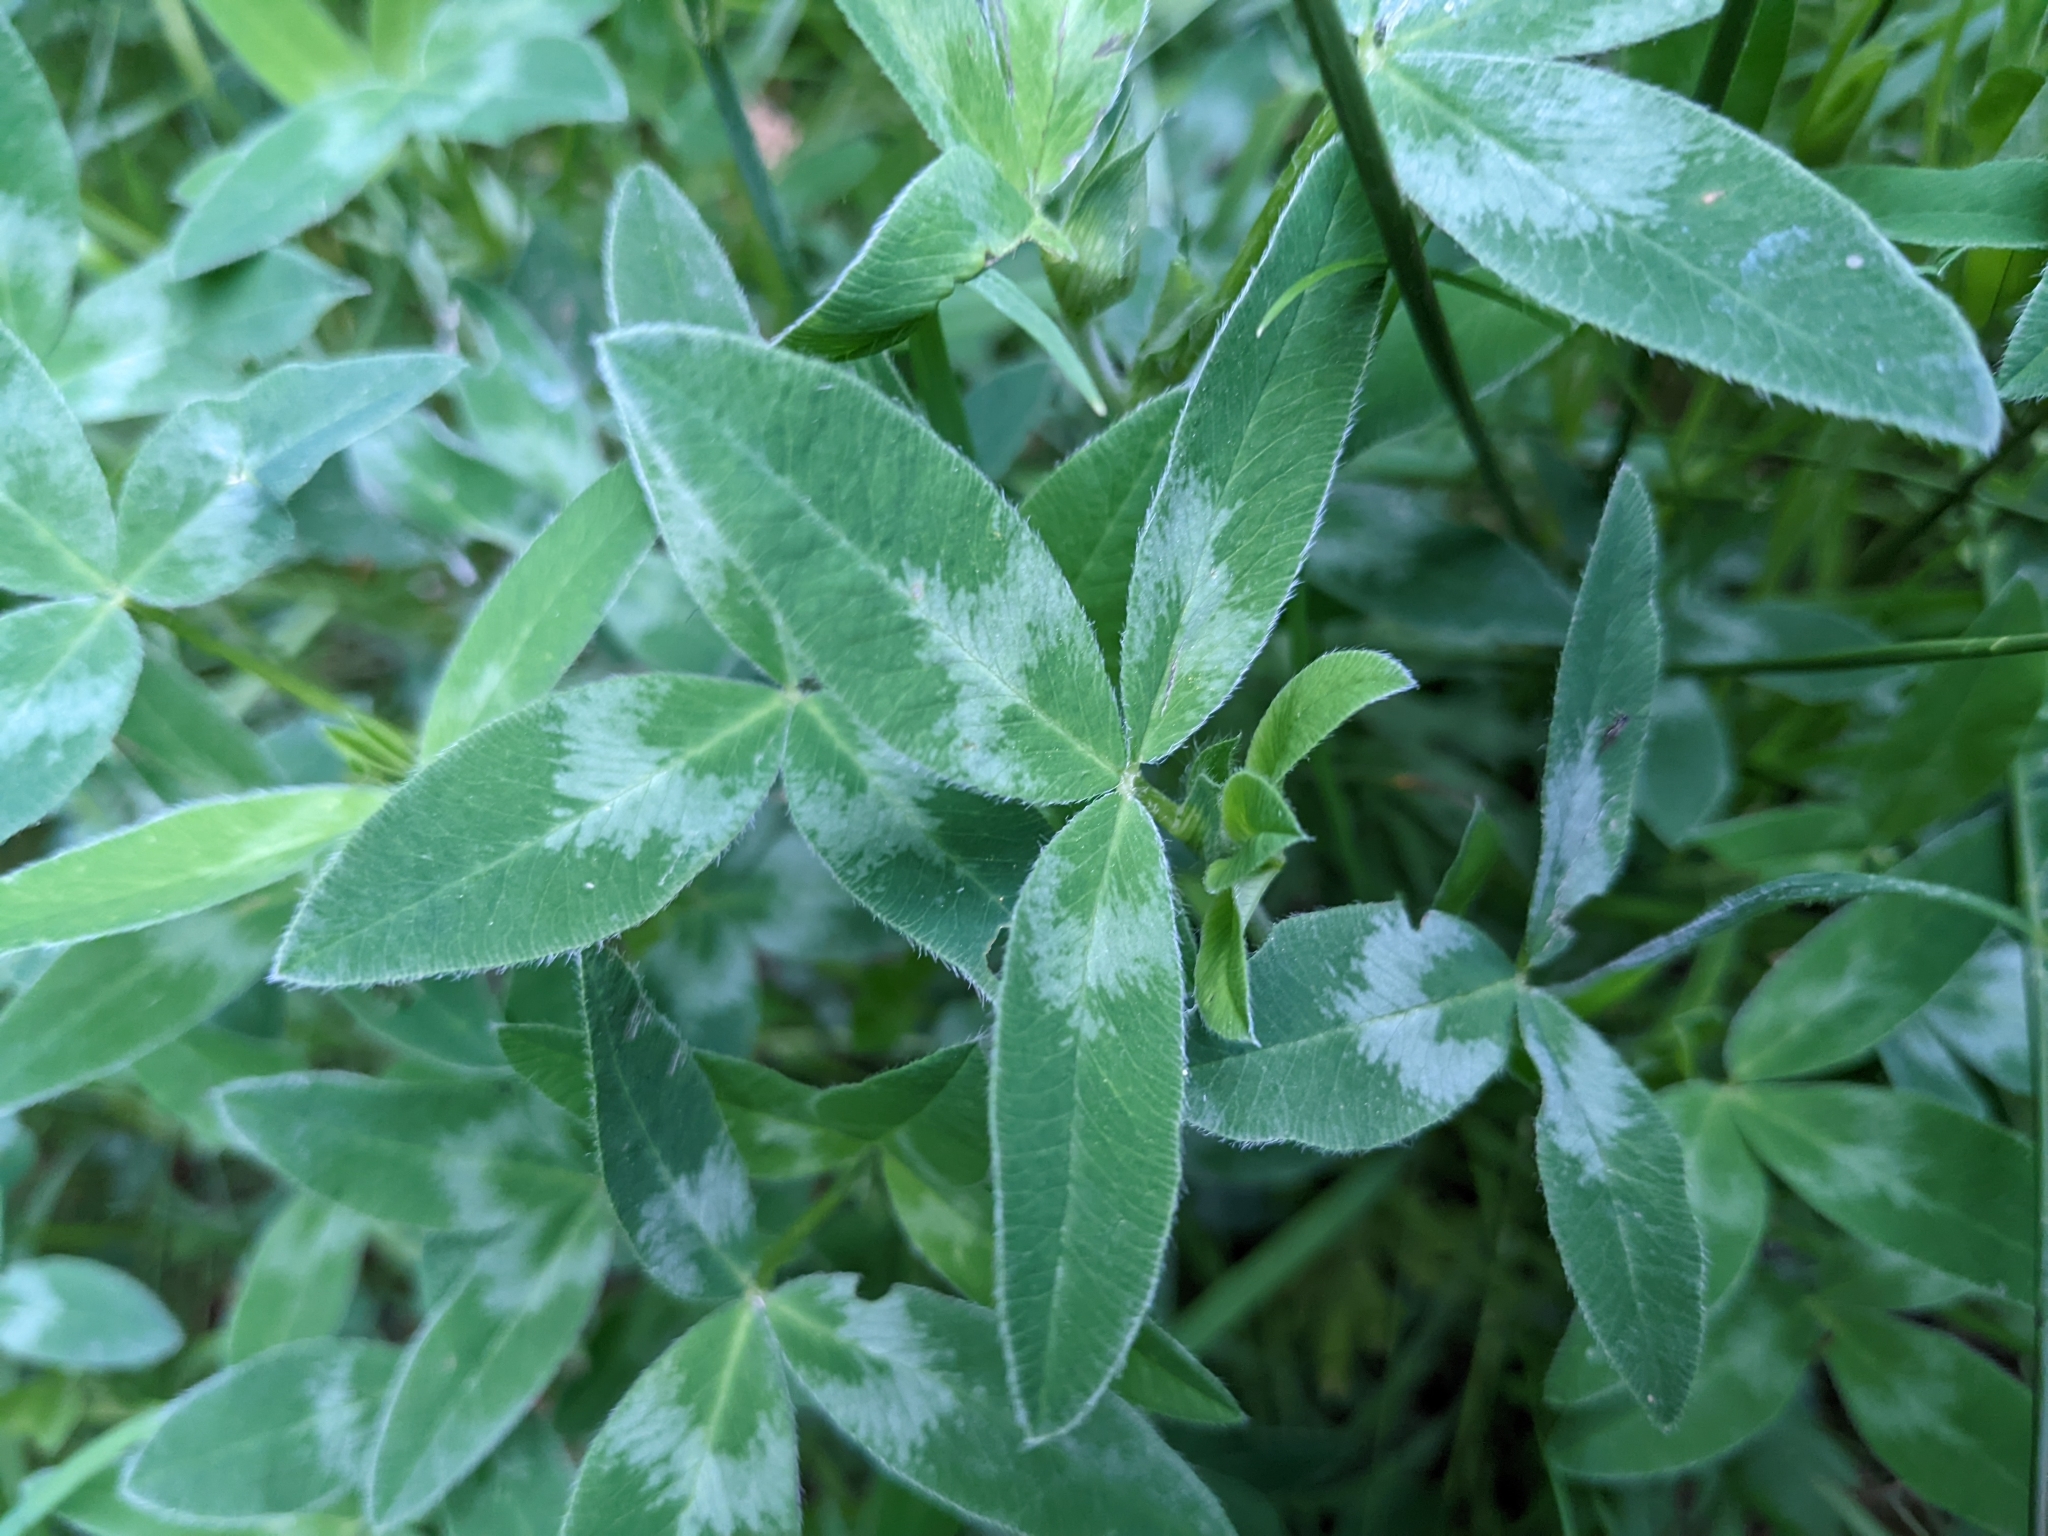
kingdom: Plantae
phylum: Tracheophyta
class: Magnoliopsida
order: Fabales
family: Fabaceae
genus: Trifolium
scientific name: Trifolium medium
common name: Zigzag clover
